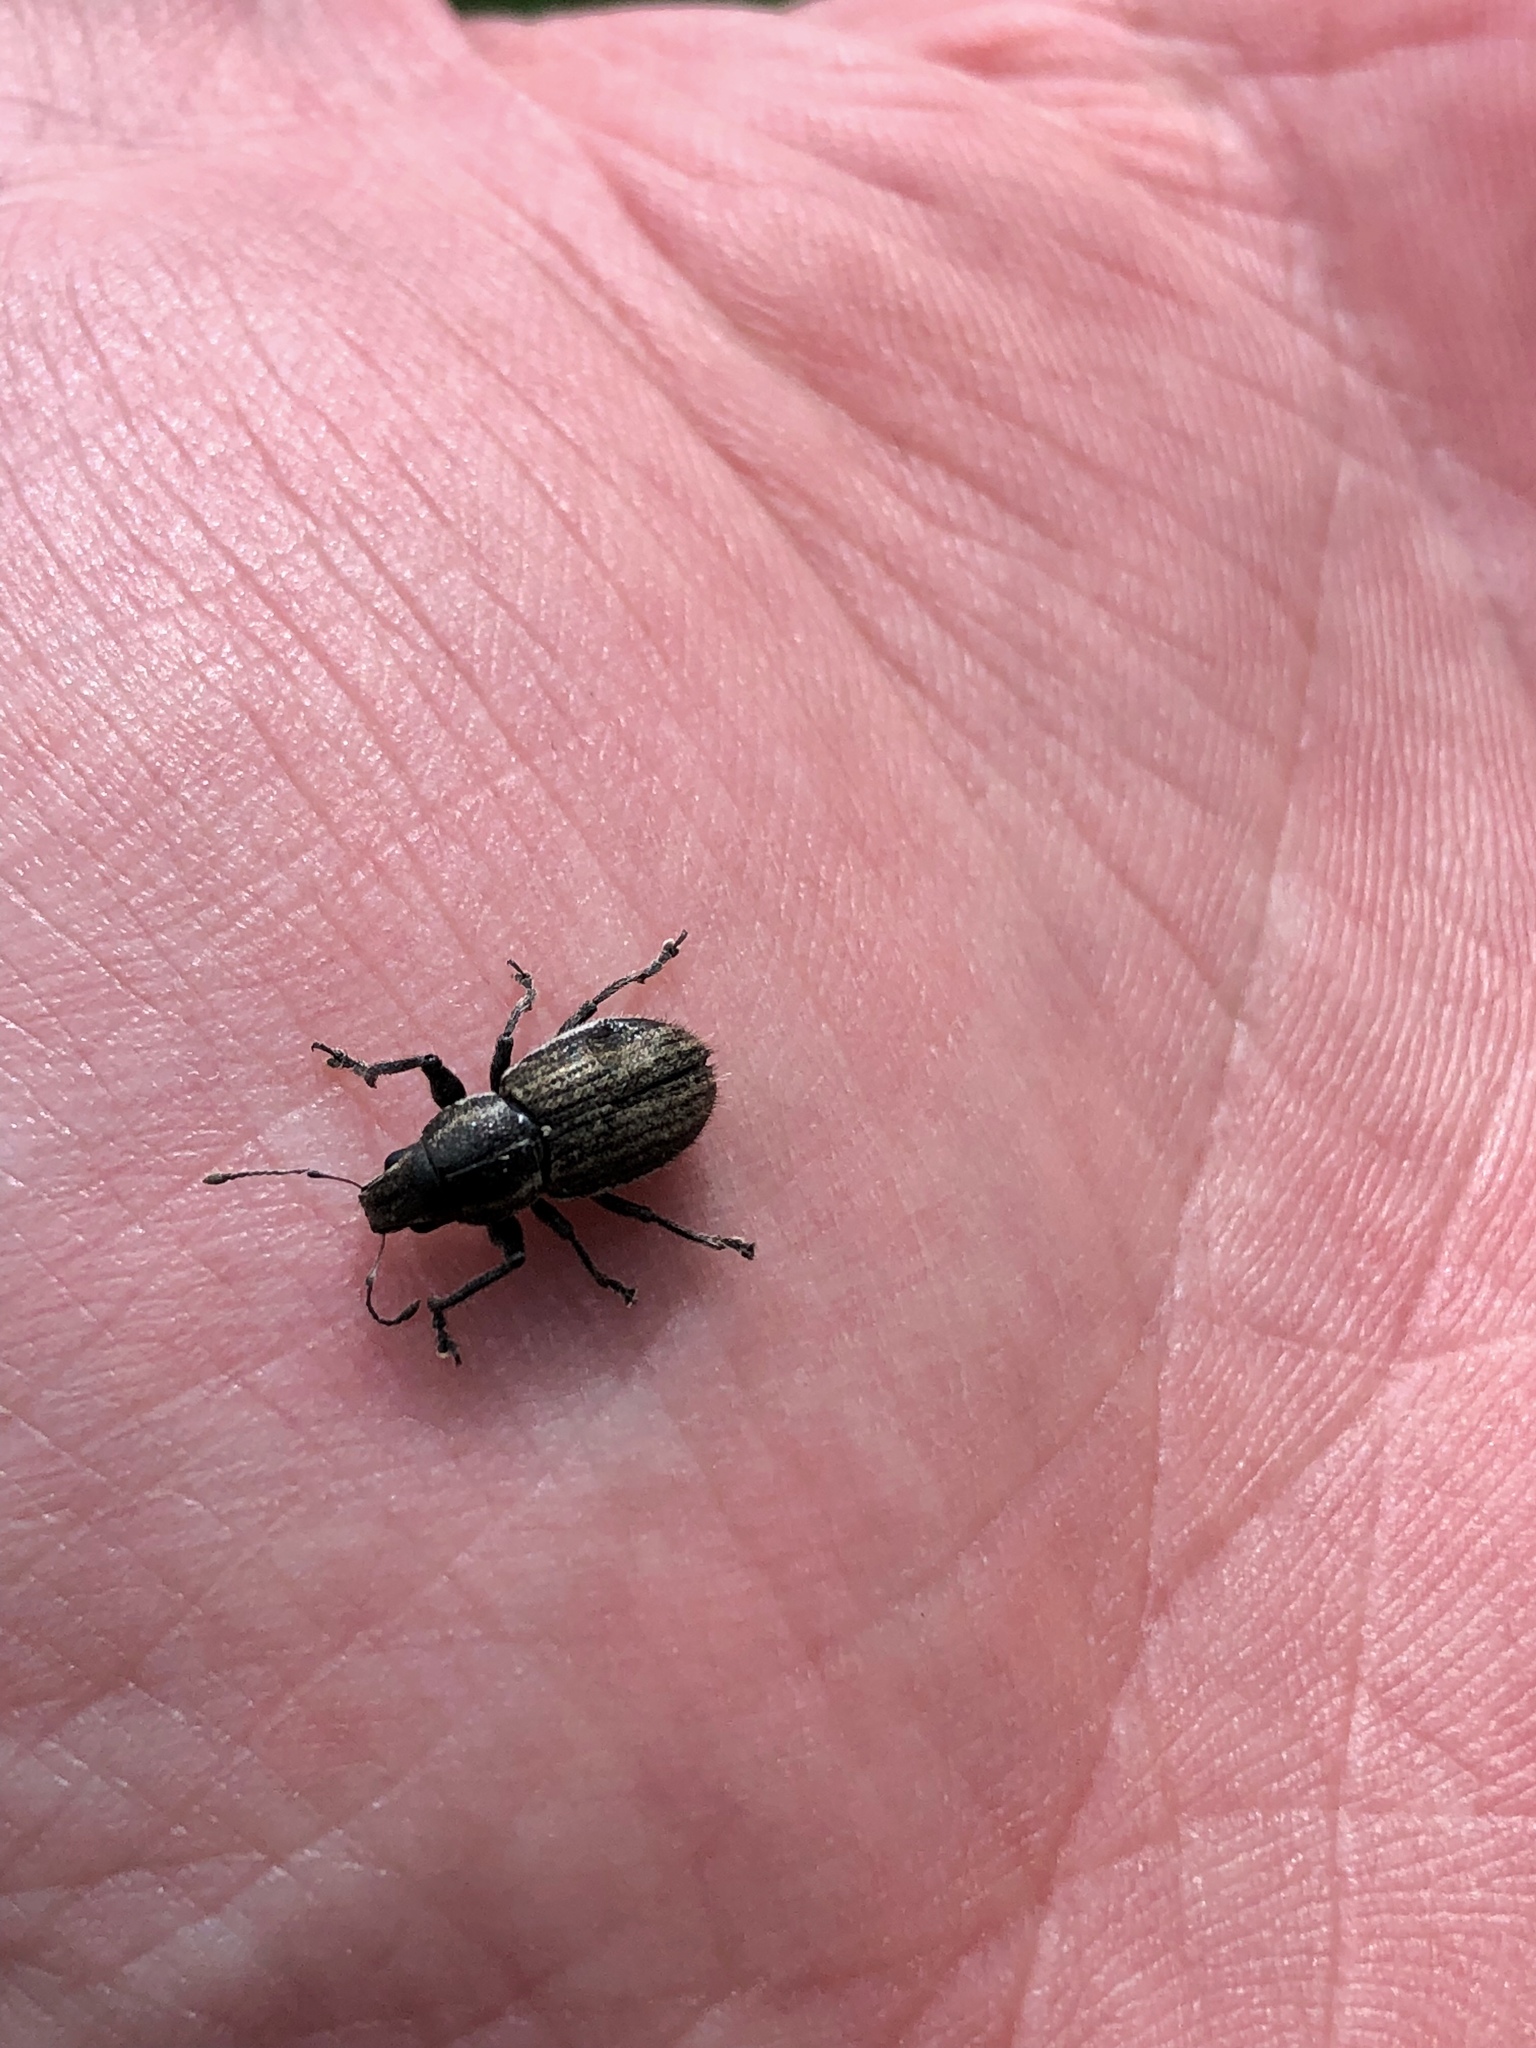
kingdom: Animalia
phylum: Arthropoda
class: Insecta
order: Coleoptera
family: Curculionidae
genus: Naupactus
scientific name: Naupactus leucoloma
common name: Whitefringed beetle
